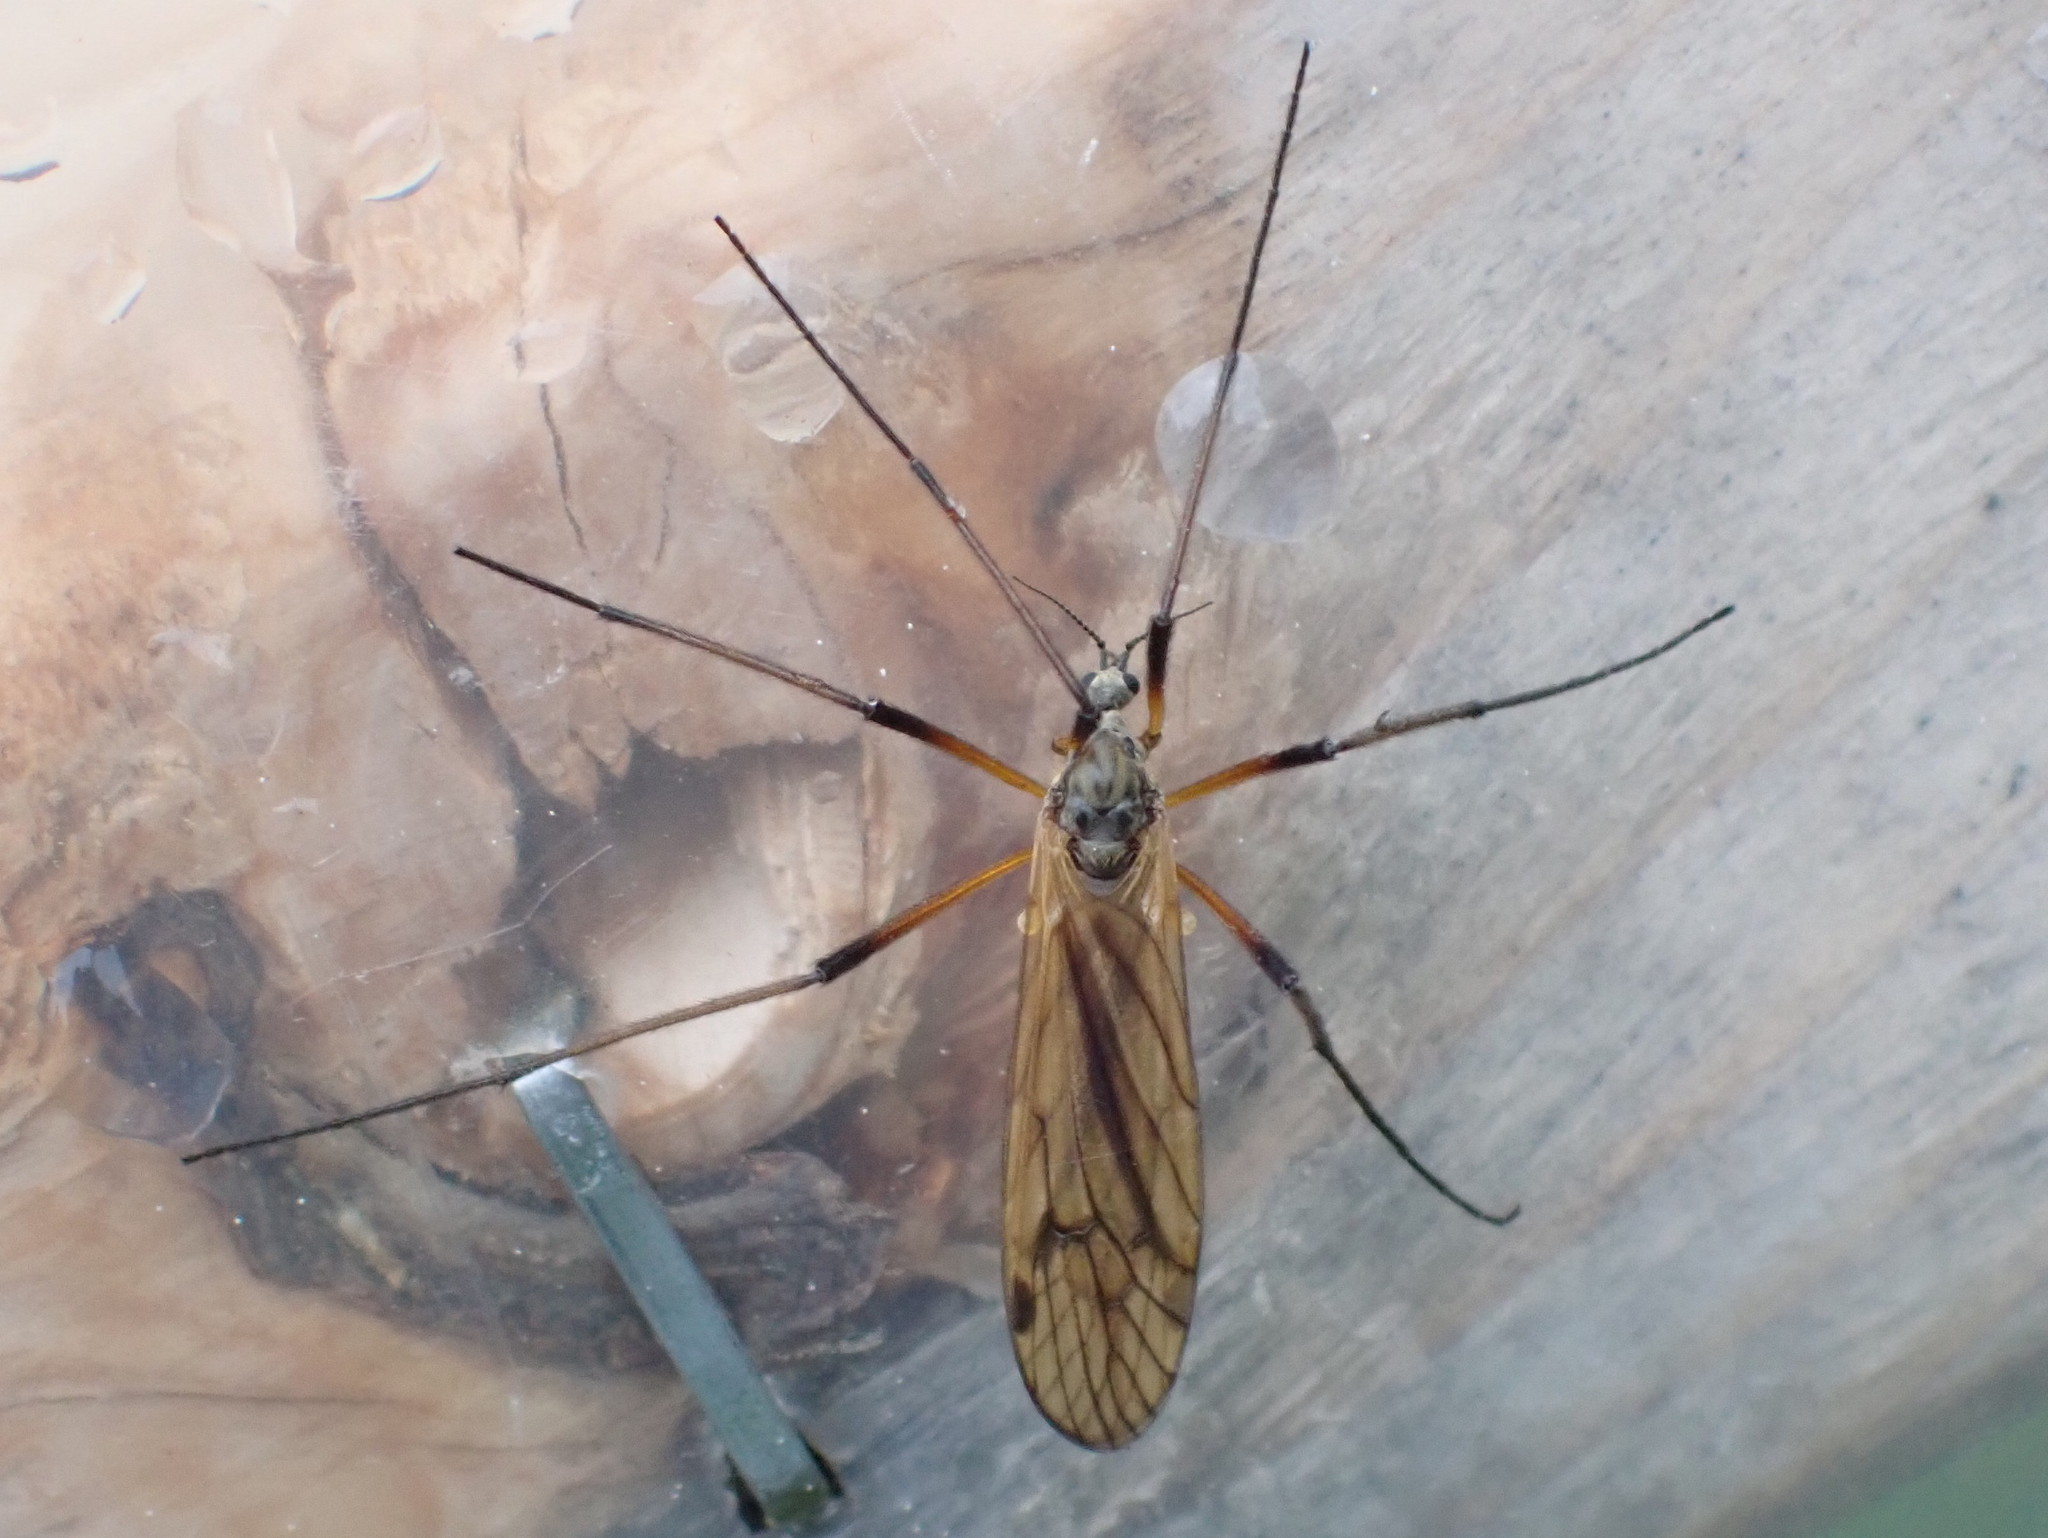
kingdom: Animalia
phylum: Arthropoda
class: Insecta
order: Diptera
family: Limoniidae
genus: Prionolabis
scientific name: Prionolabis rufibasis
